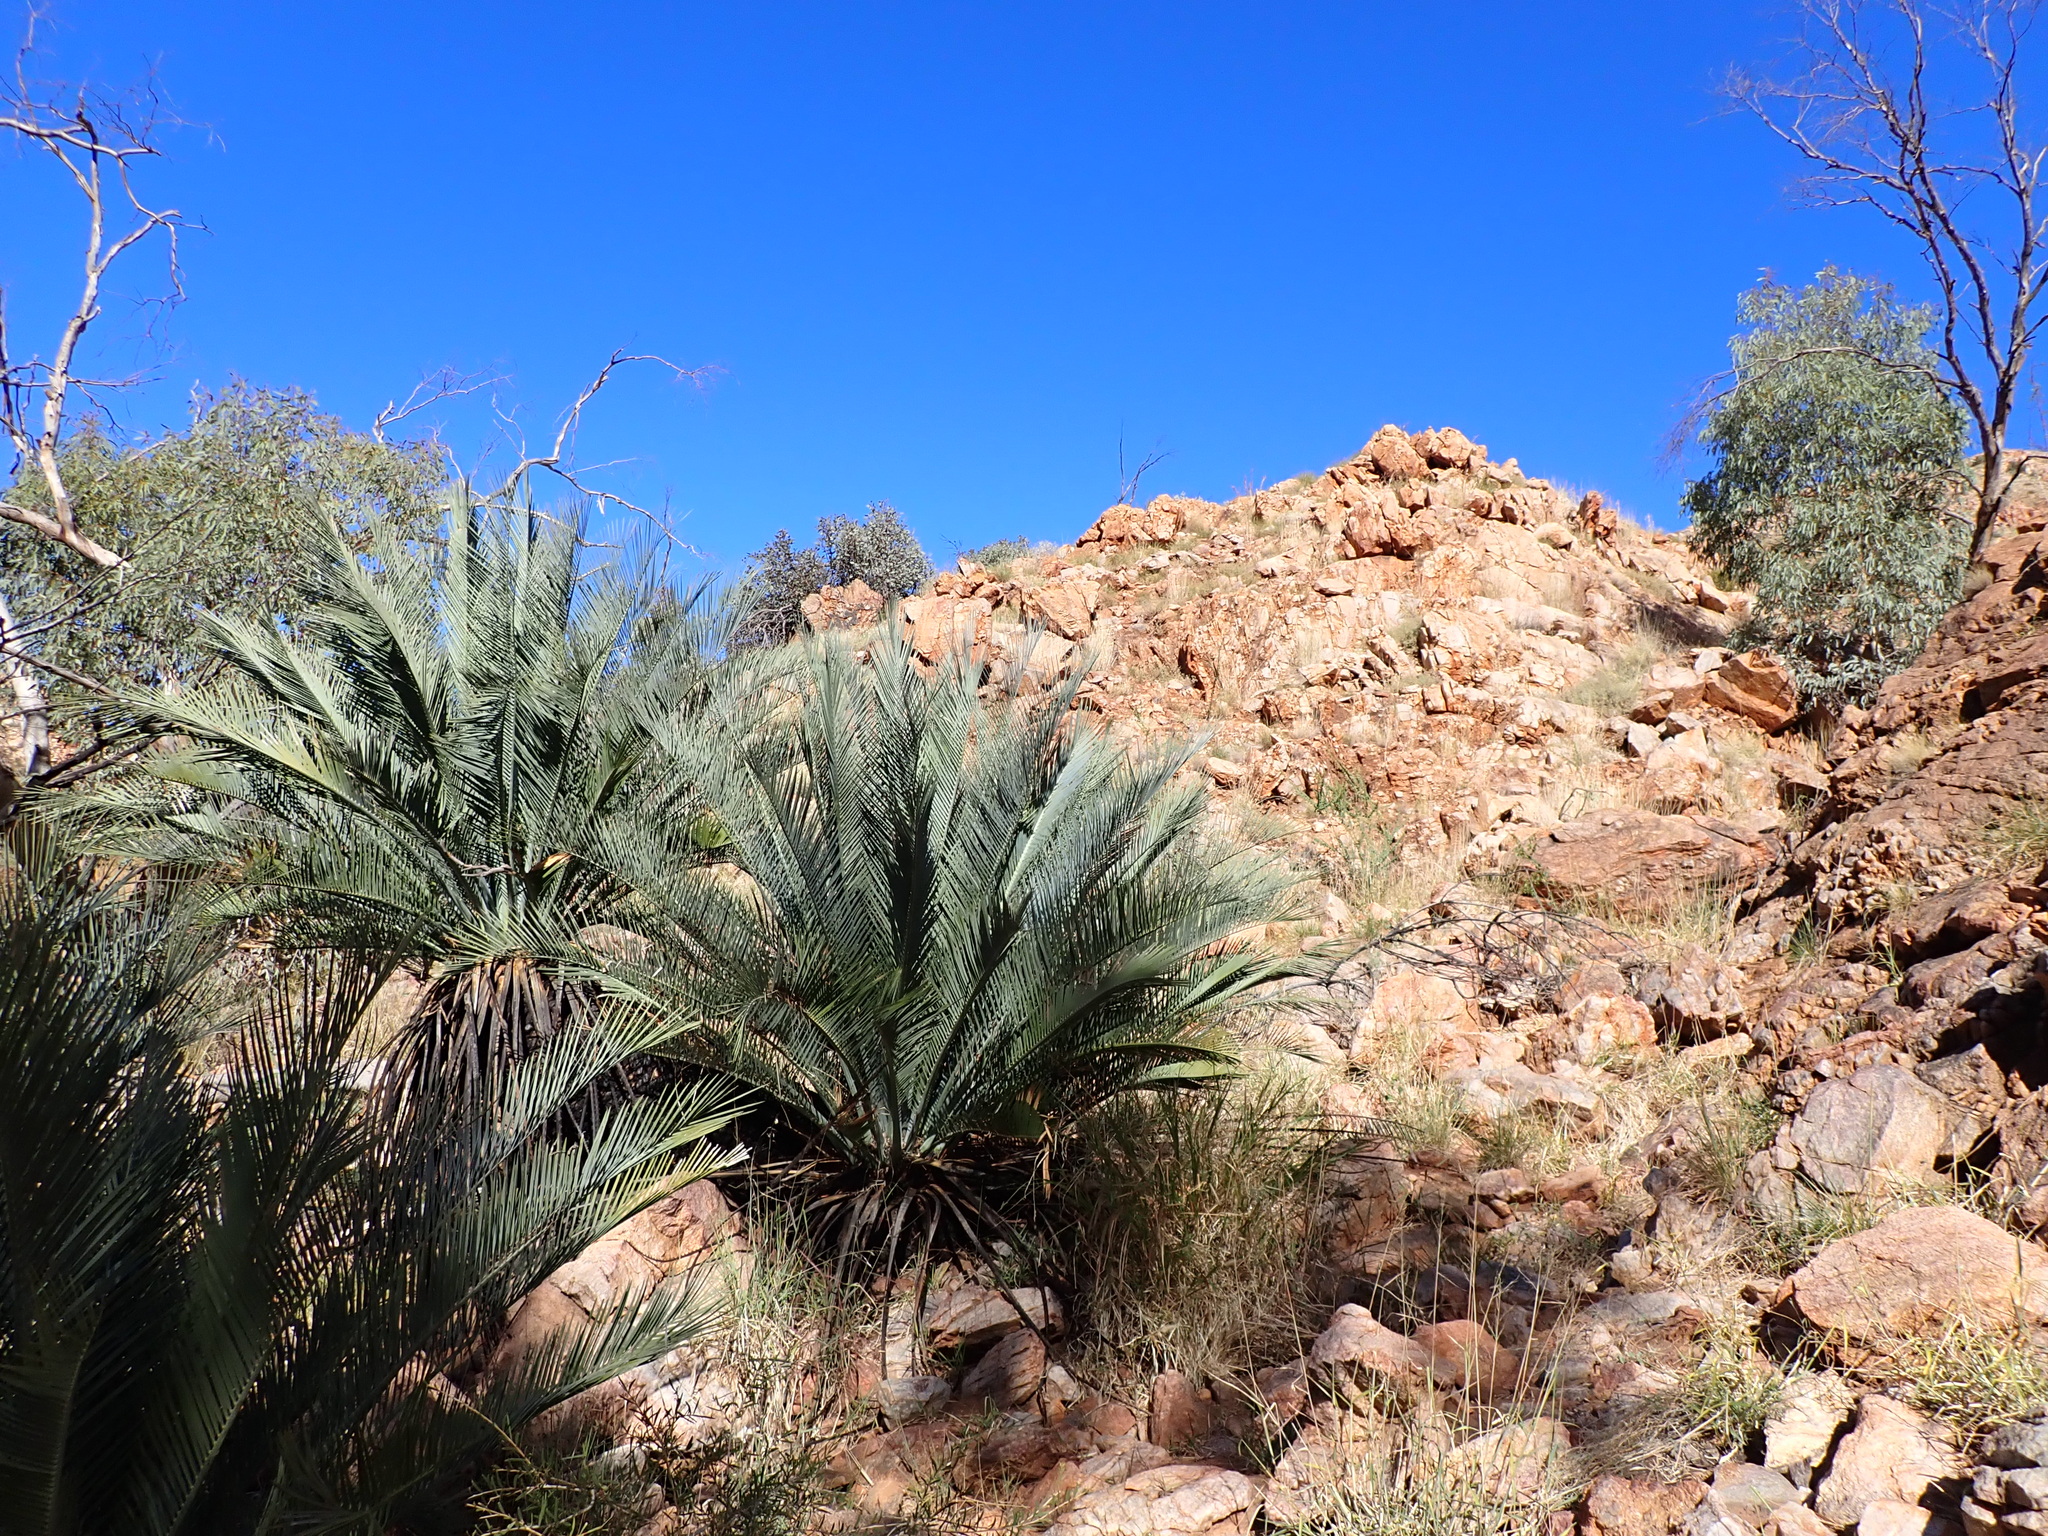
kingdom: Plantae
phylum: Tracheophyta
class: Cycadopsida
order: Cycadales
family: Zamiaceae
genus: Macrozamia
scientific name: Macrozamia macdonnellii
